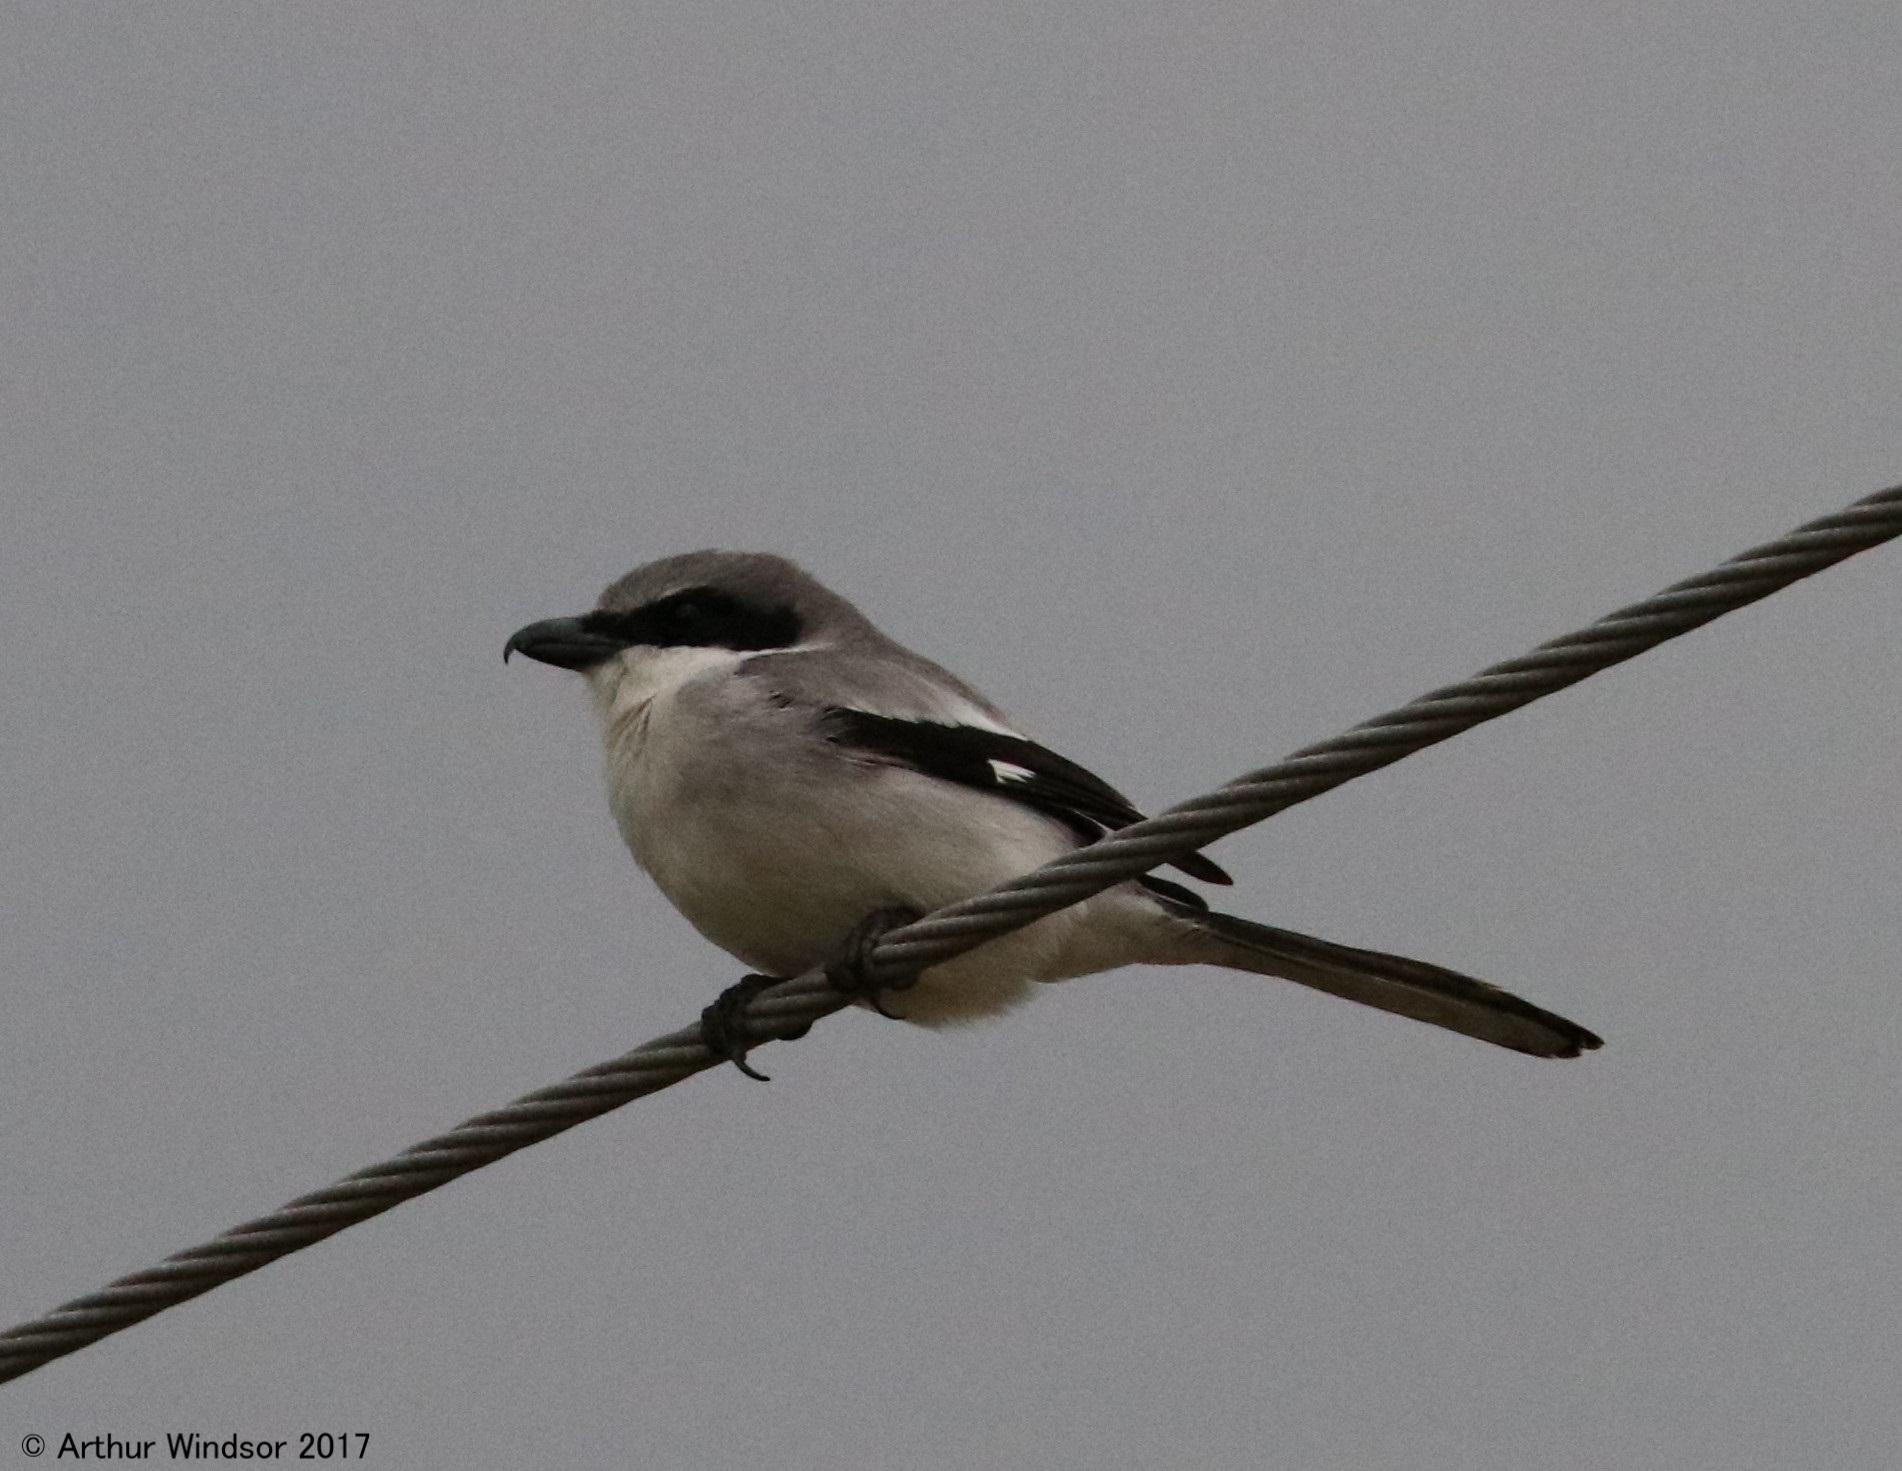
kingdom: Animalia
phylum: Chordata
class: Aves
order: Passeriformes
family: Laniidae
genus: Lanius
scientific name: Lanius ludovicianus
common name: Loggerhead shrike
